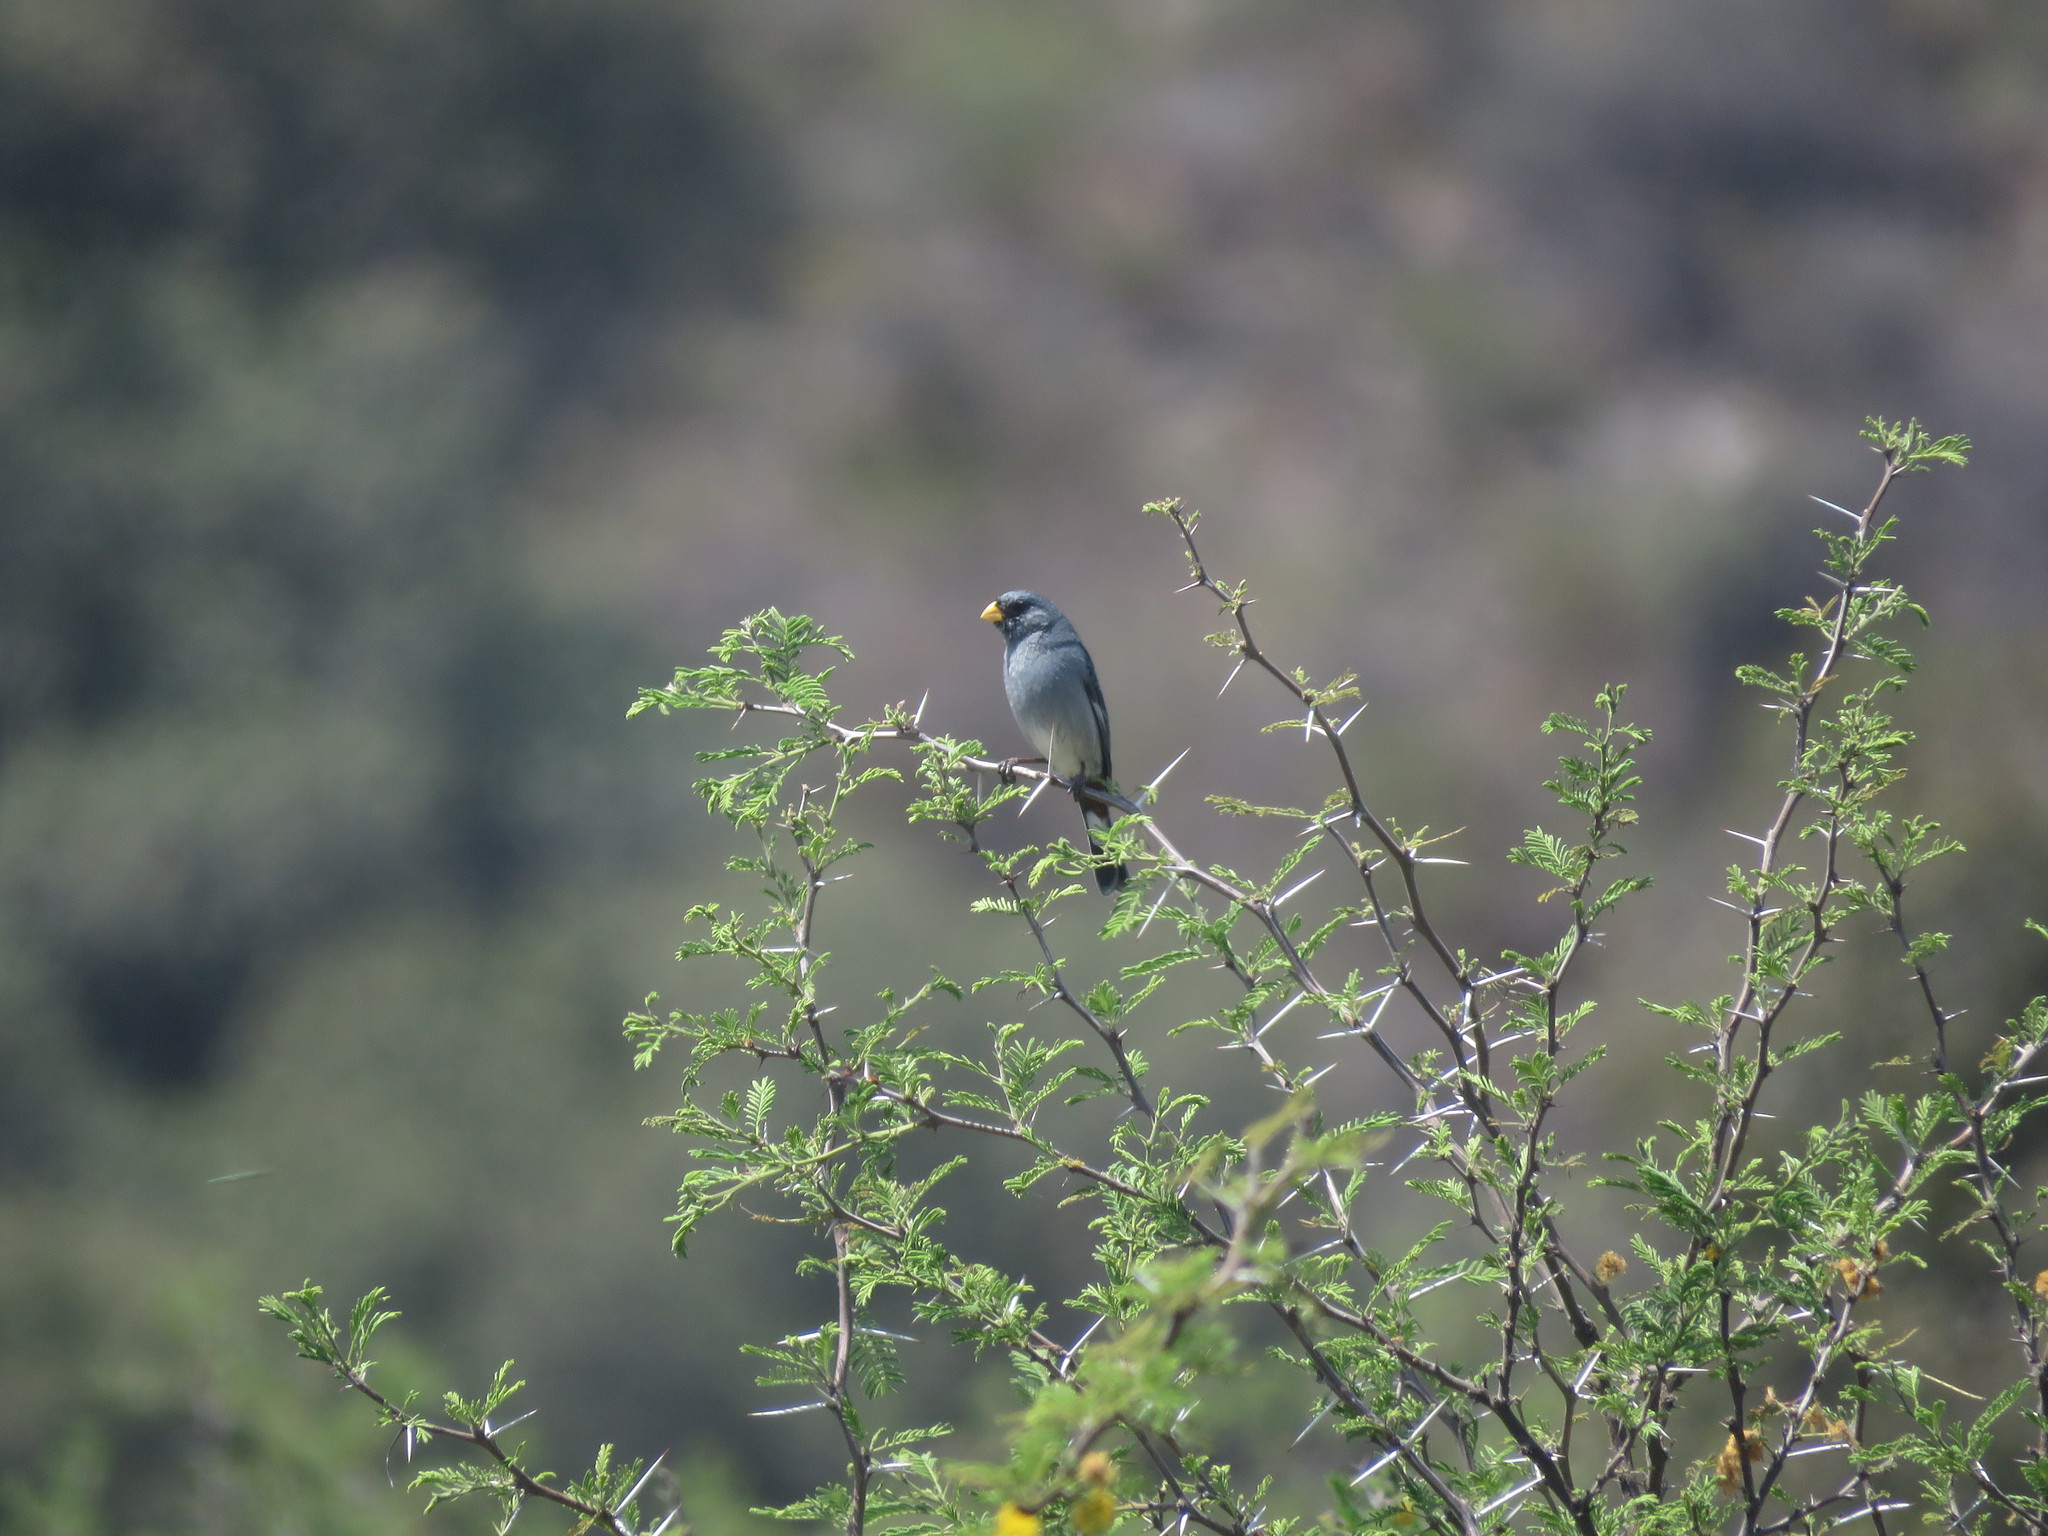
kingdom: Animalia
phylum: Chordata
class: Aves
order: Passeriformes
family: Thraupidae
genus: Catamenia
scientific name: Catamenia analis
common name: Band-tailed seedeater
